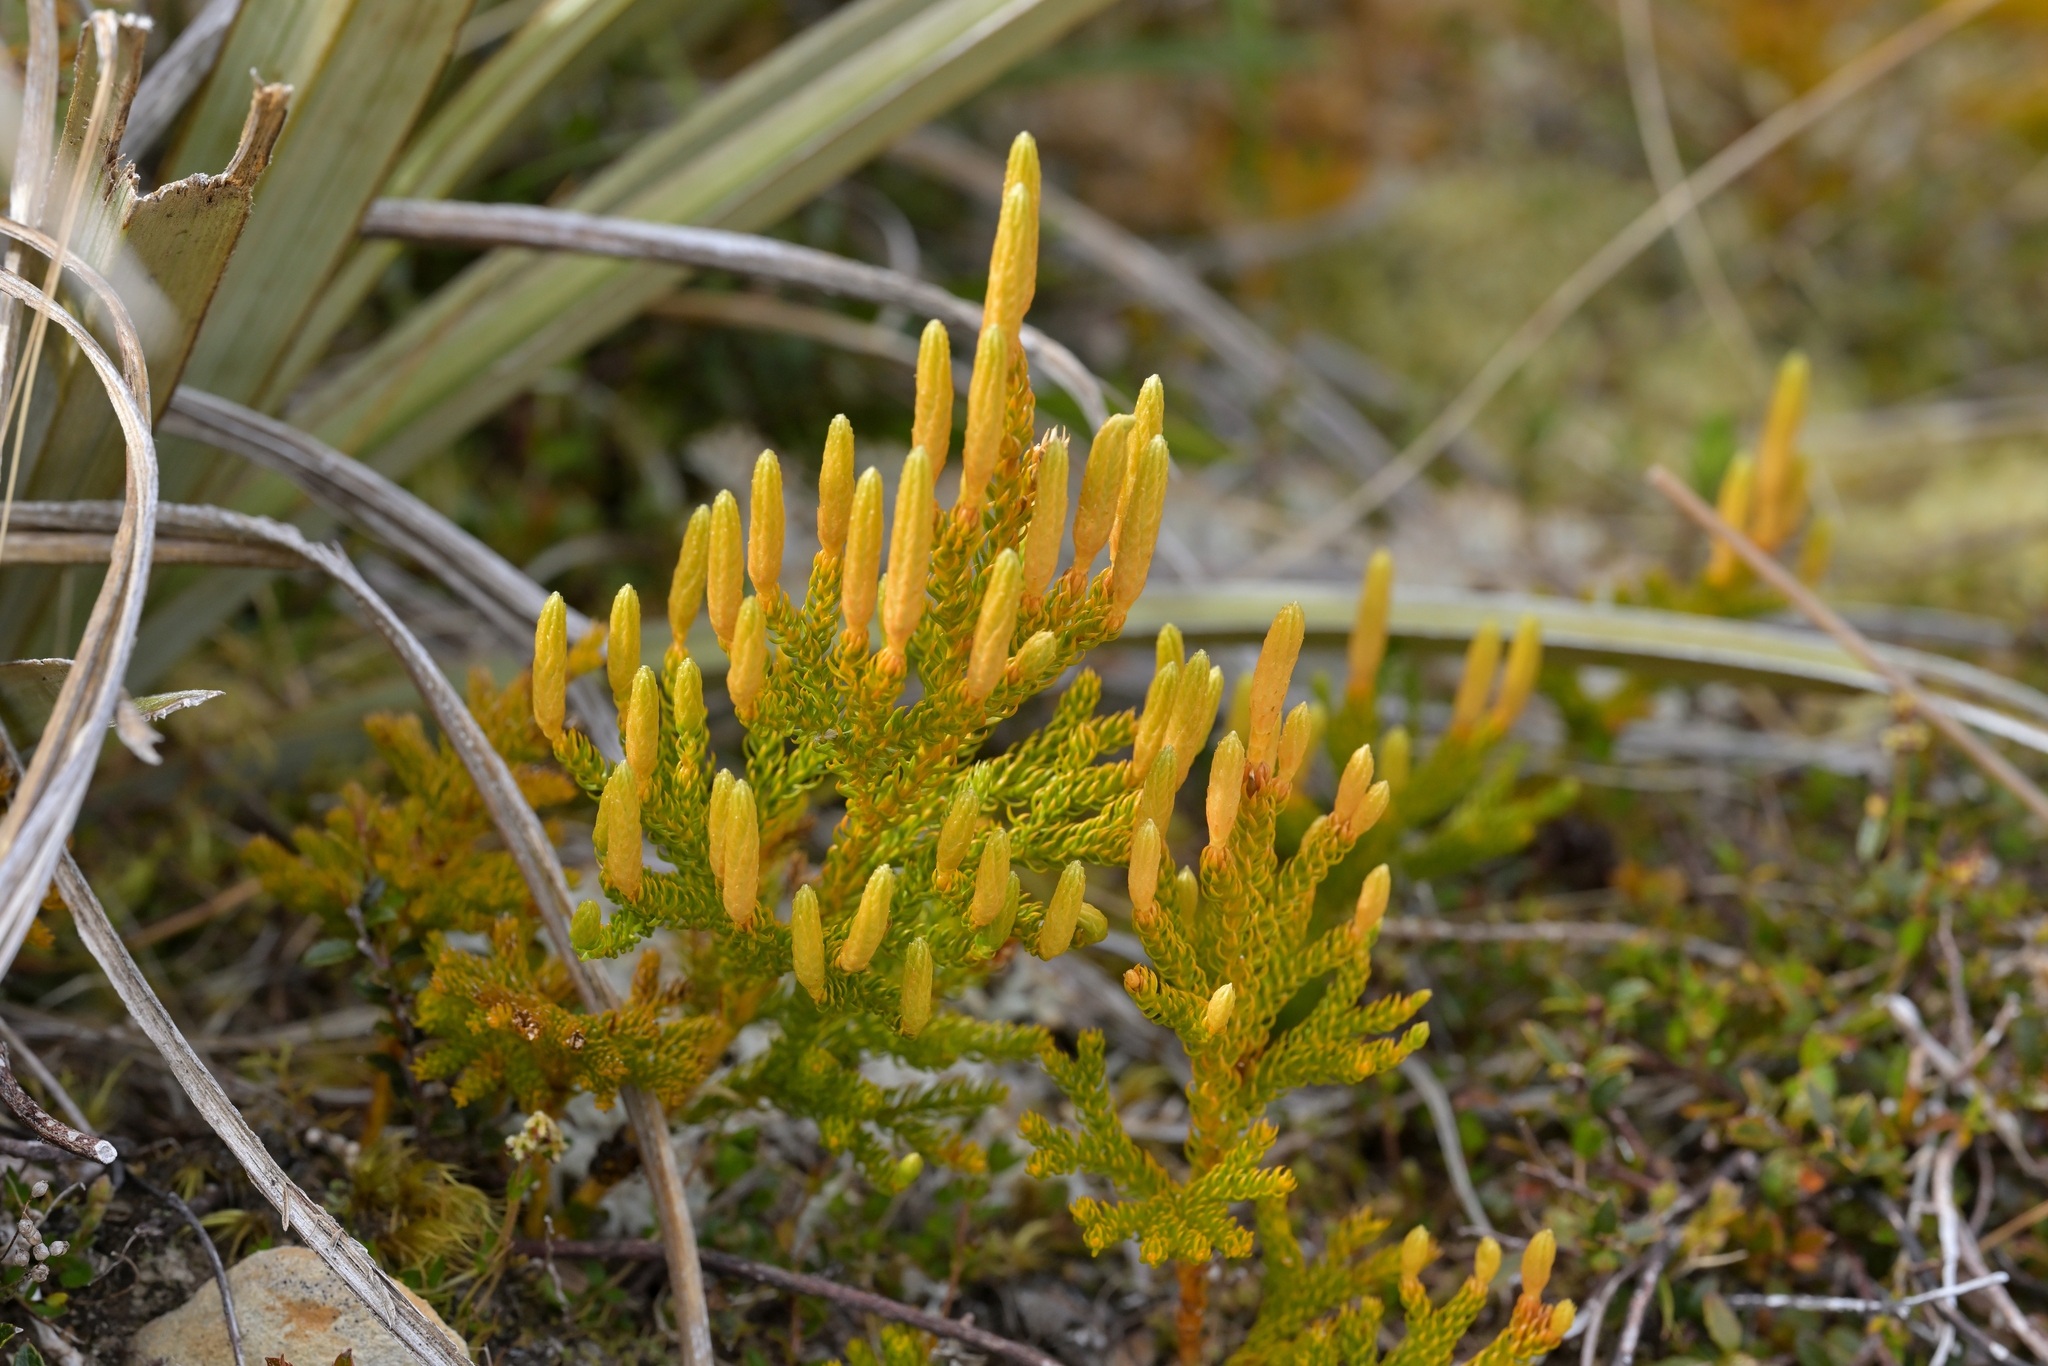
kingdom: Plantae
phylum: Tracheophyta
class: Lycopodiopsida
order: Lycopodiales
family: Lycopodiaceae
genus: Austrolycopodium
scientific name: Austrolycopodium fastigiatum
